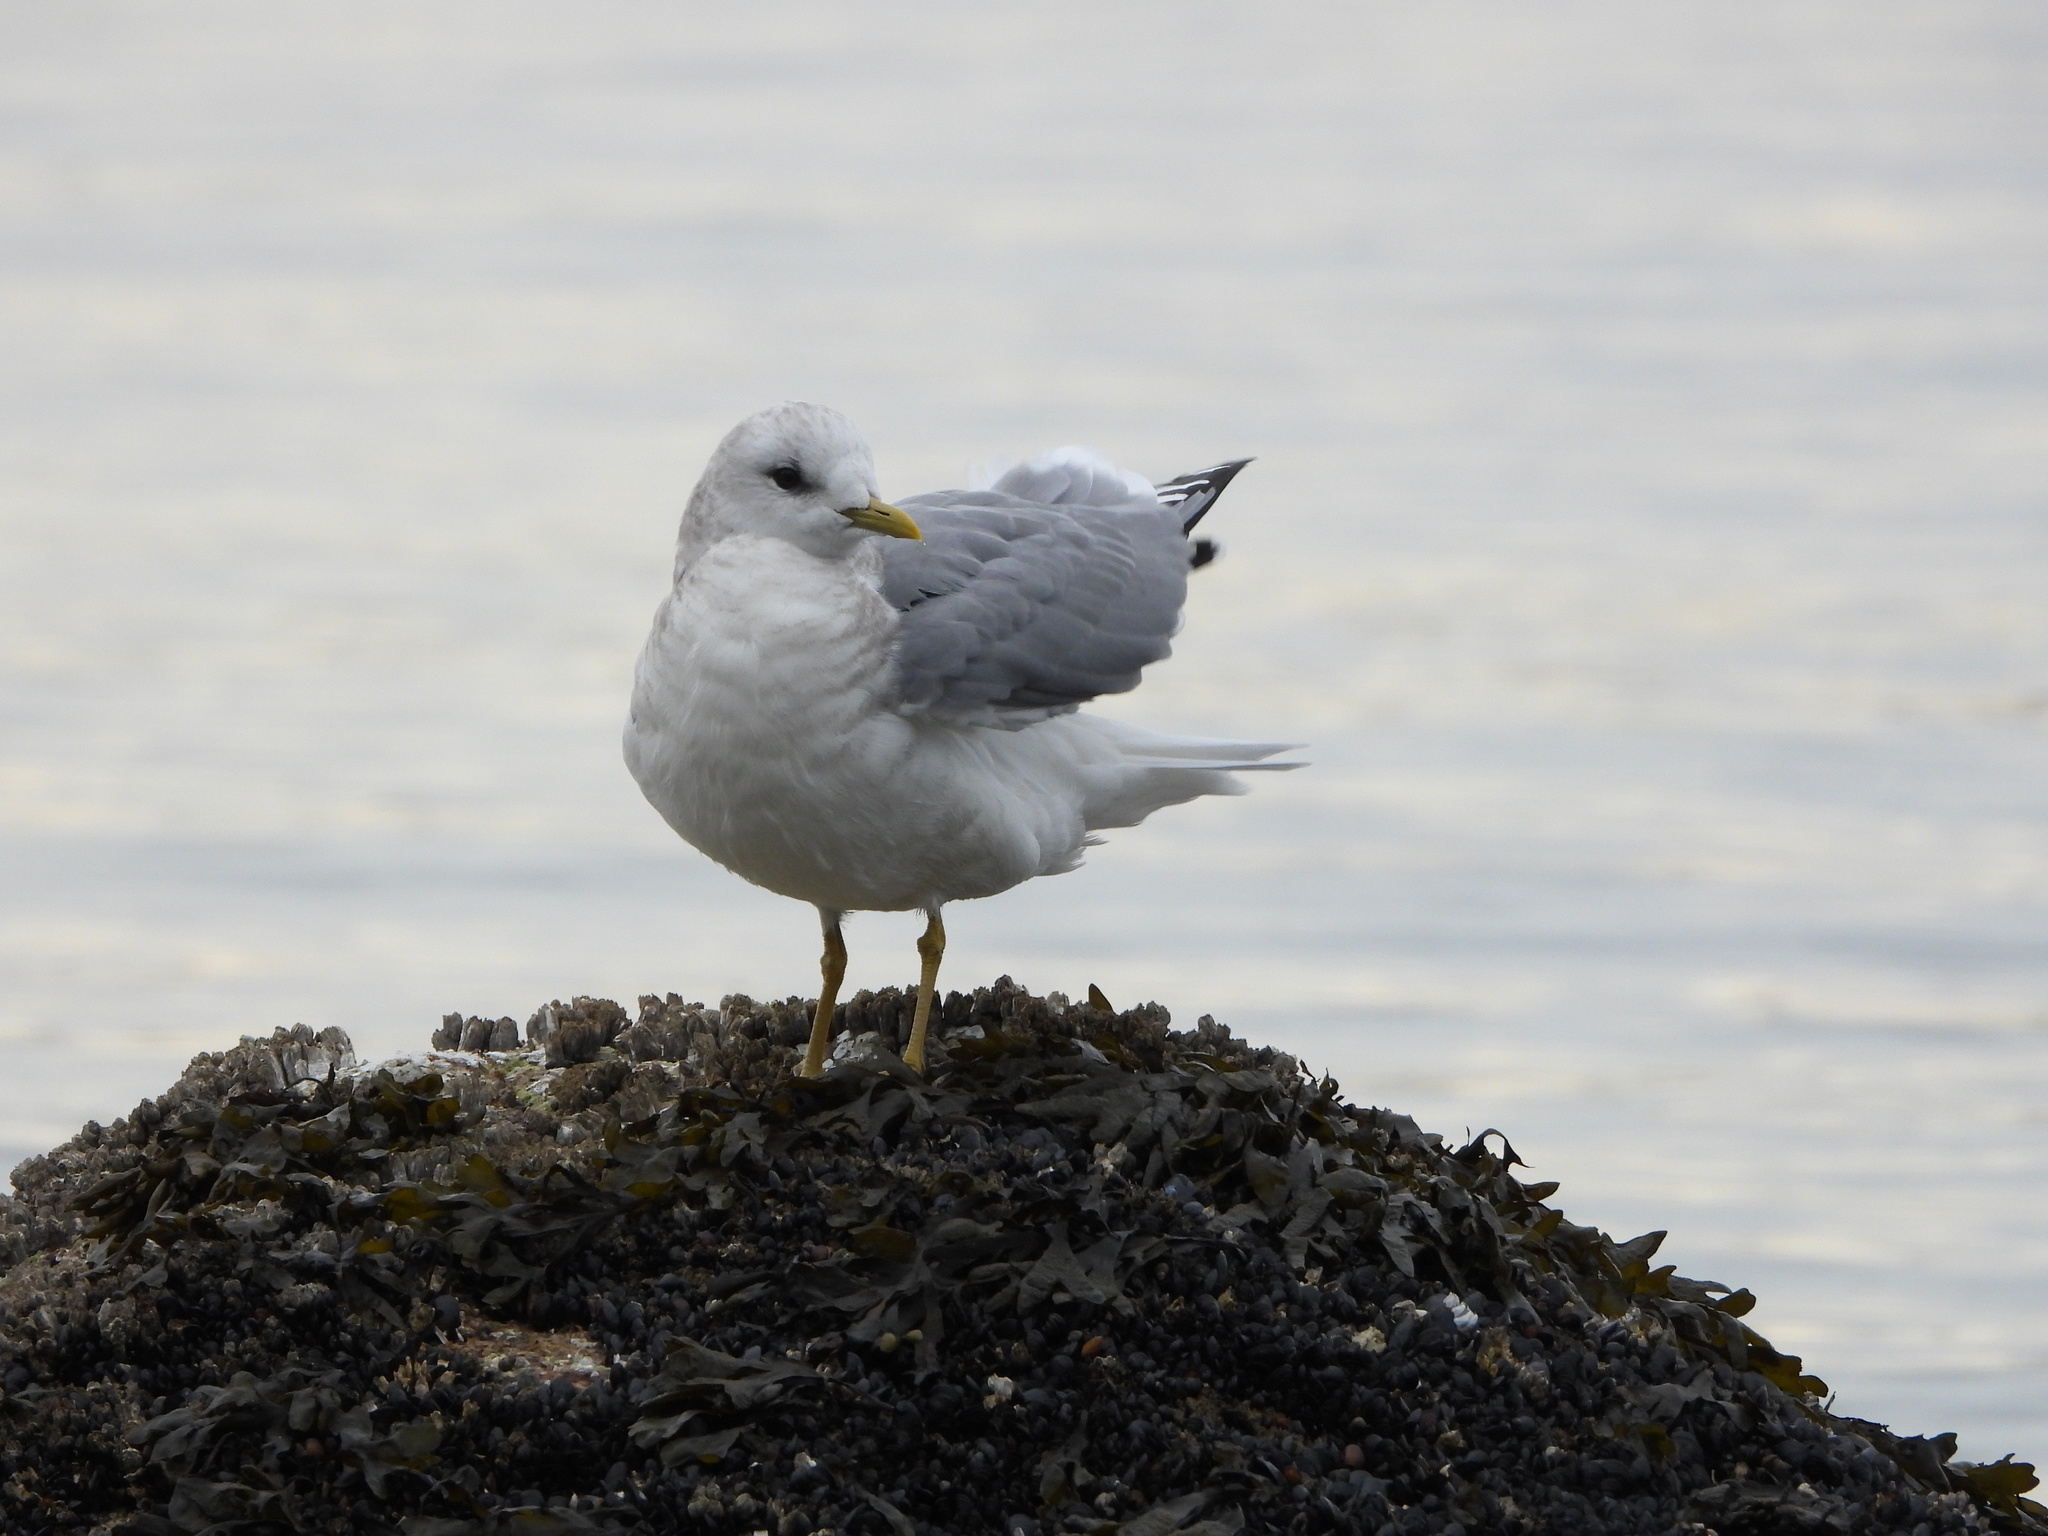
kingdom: Animalia
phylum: Chordata
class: Aves
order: Charadriiformes
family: Laridae
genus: Larus
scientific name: Larus brachyrhynchus
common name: Short-billed gull
